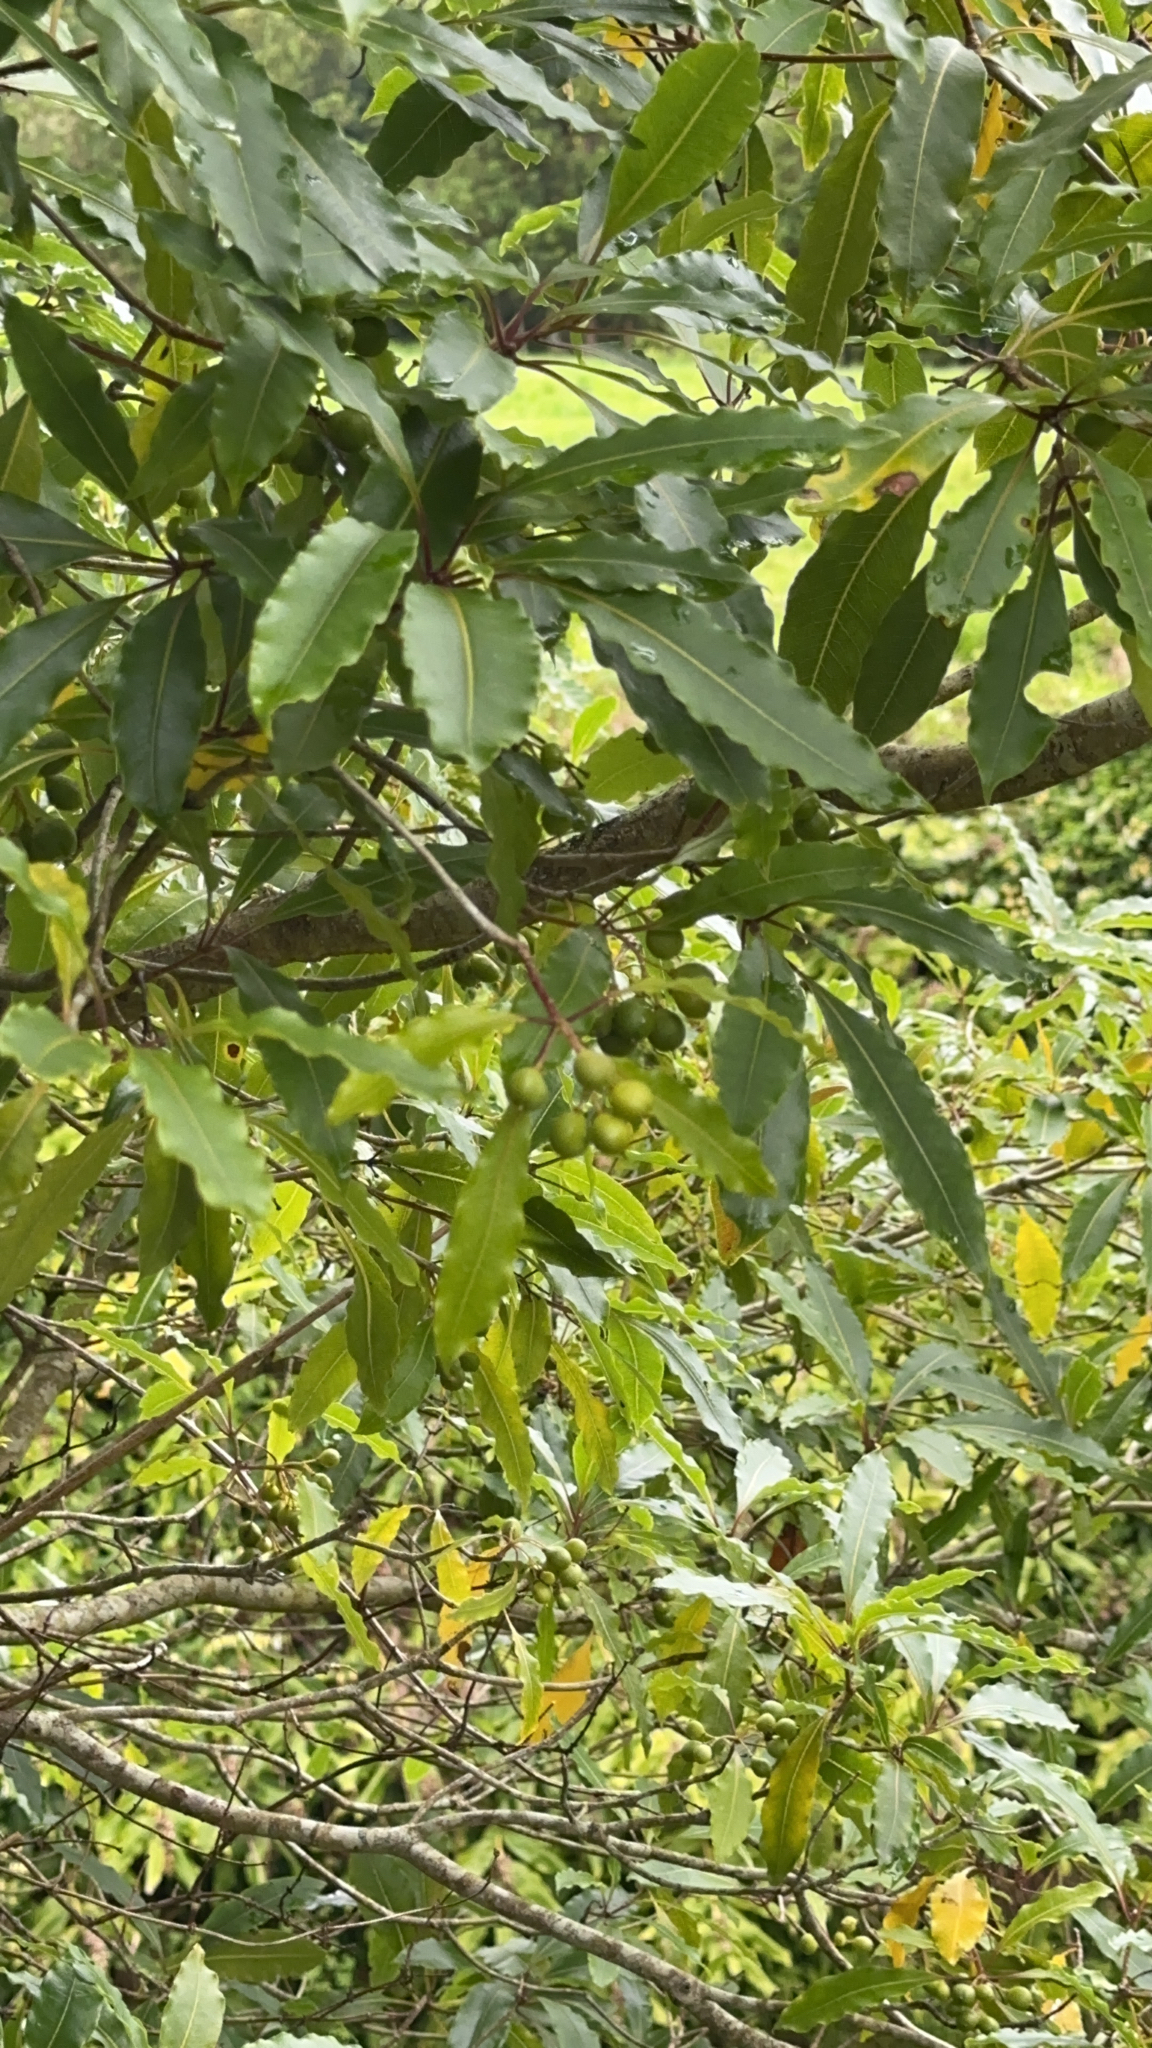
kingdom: Plantae
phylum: Tracheophyta
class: Magnoliopsida
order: Apiales
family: Pittosporaceae
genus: Pittosporum
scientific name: Pittosporum undulatum
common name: Australian cheesewood
